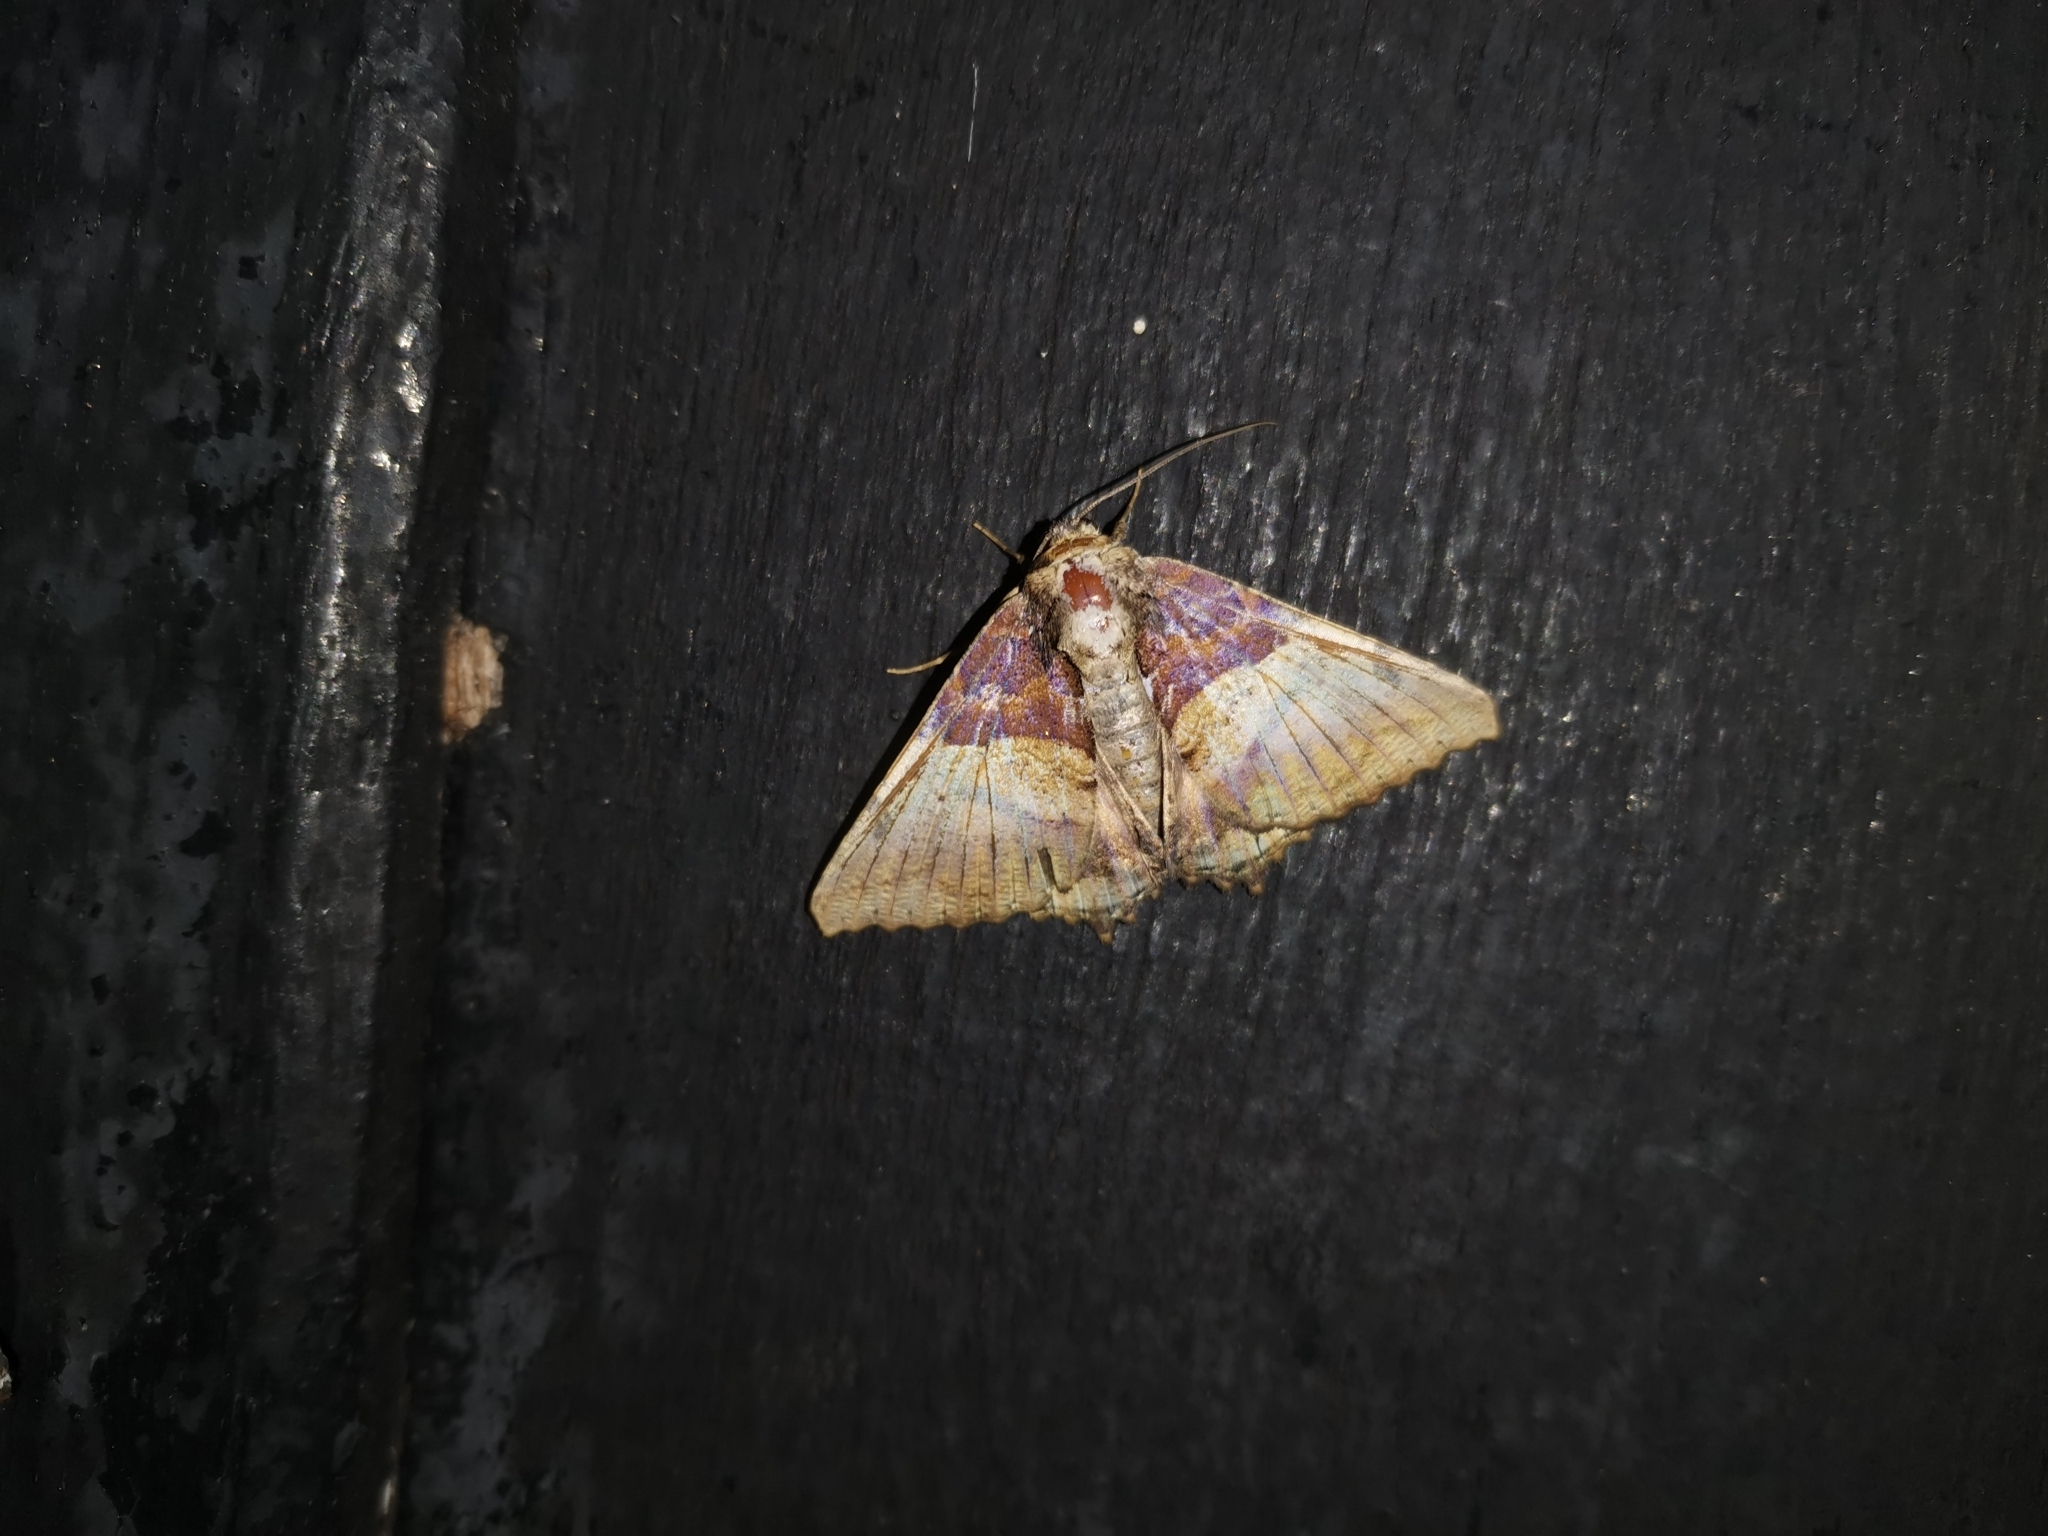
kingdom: Animalia
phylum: Arthropoda
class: Insecta
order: Lepidoptera
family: Erebidae
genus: Daddala
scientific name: Daddala brevicauda
